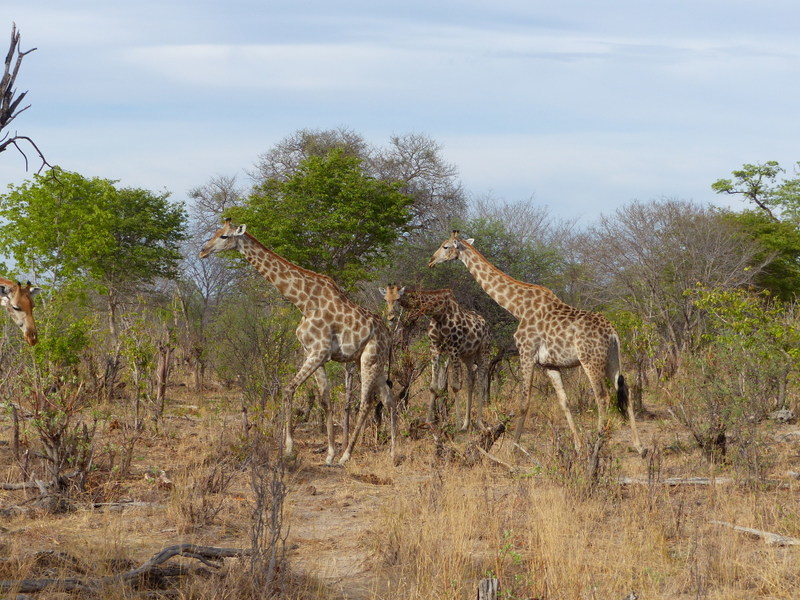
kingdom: Animalia
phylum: Chordata
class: Mammalia
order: Artiodactyla
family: Giraffidae
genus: Giraffa
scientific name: Giraffa giraffa
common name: Southern giraffe
